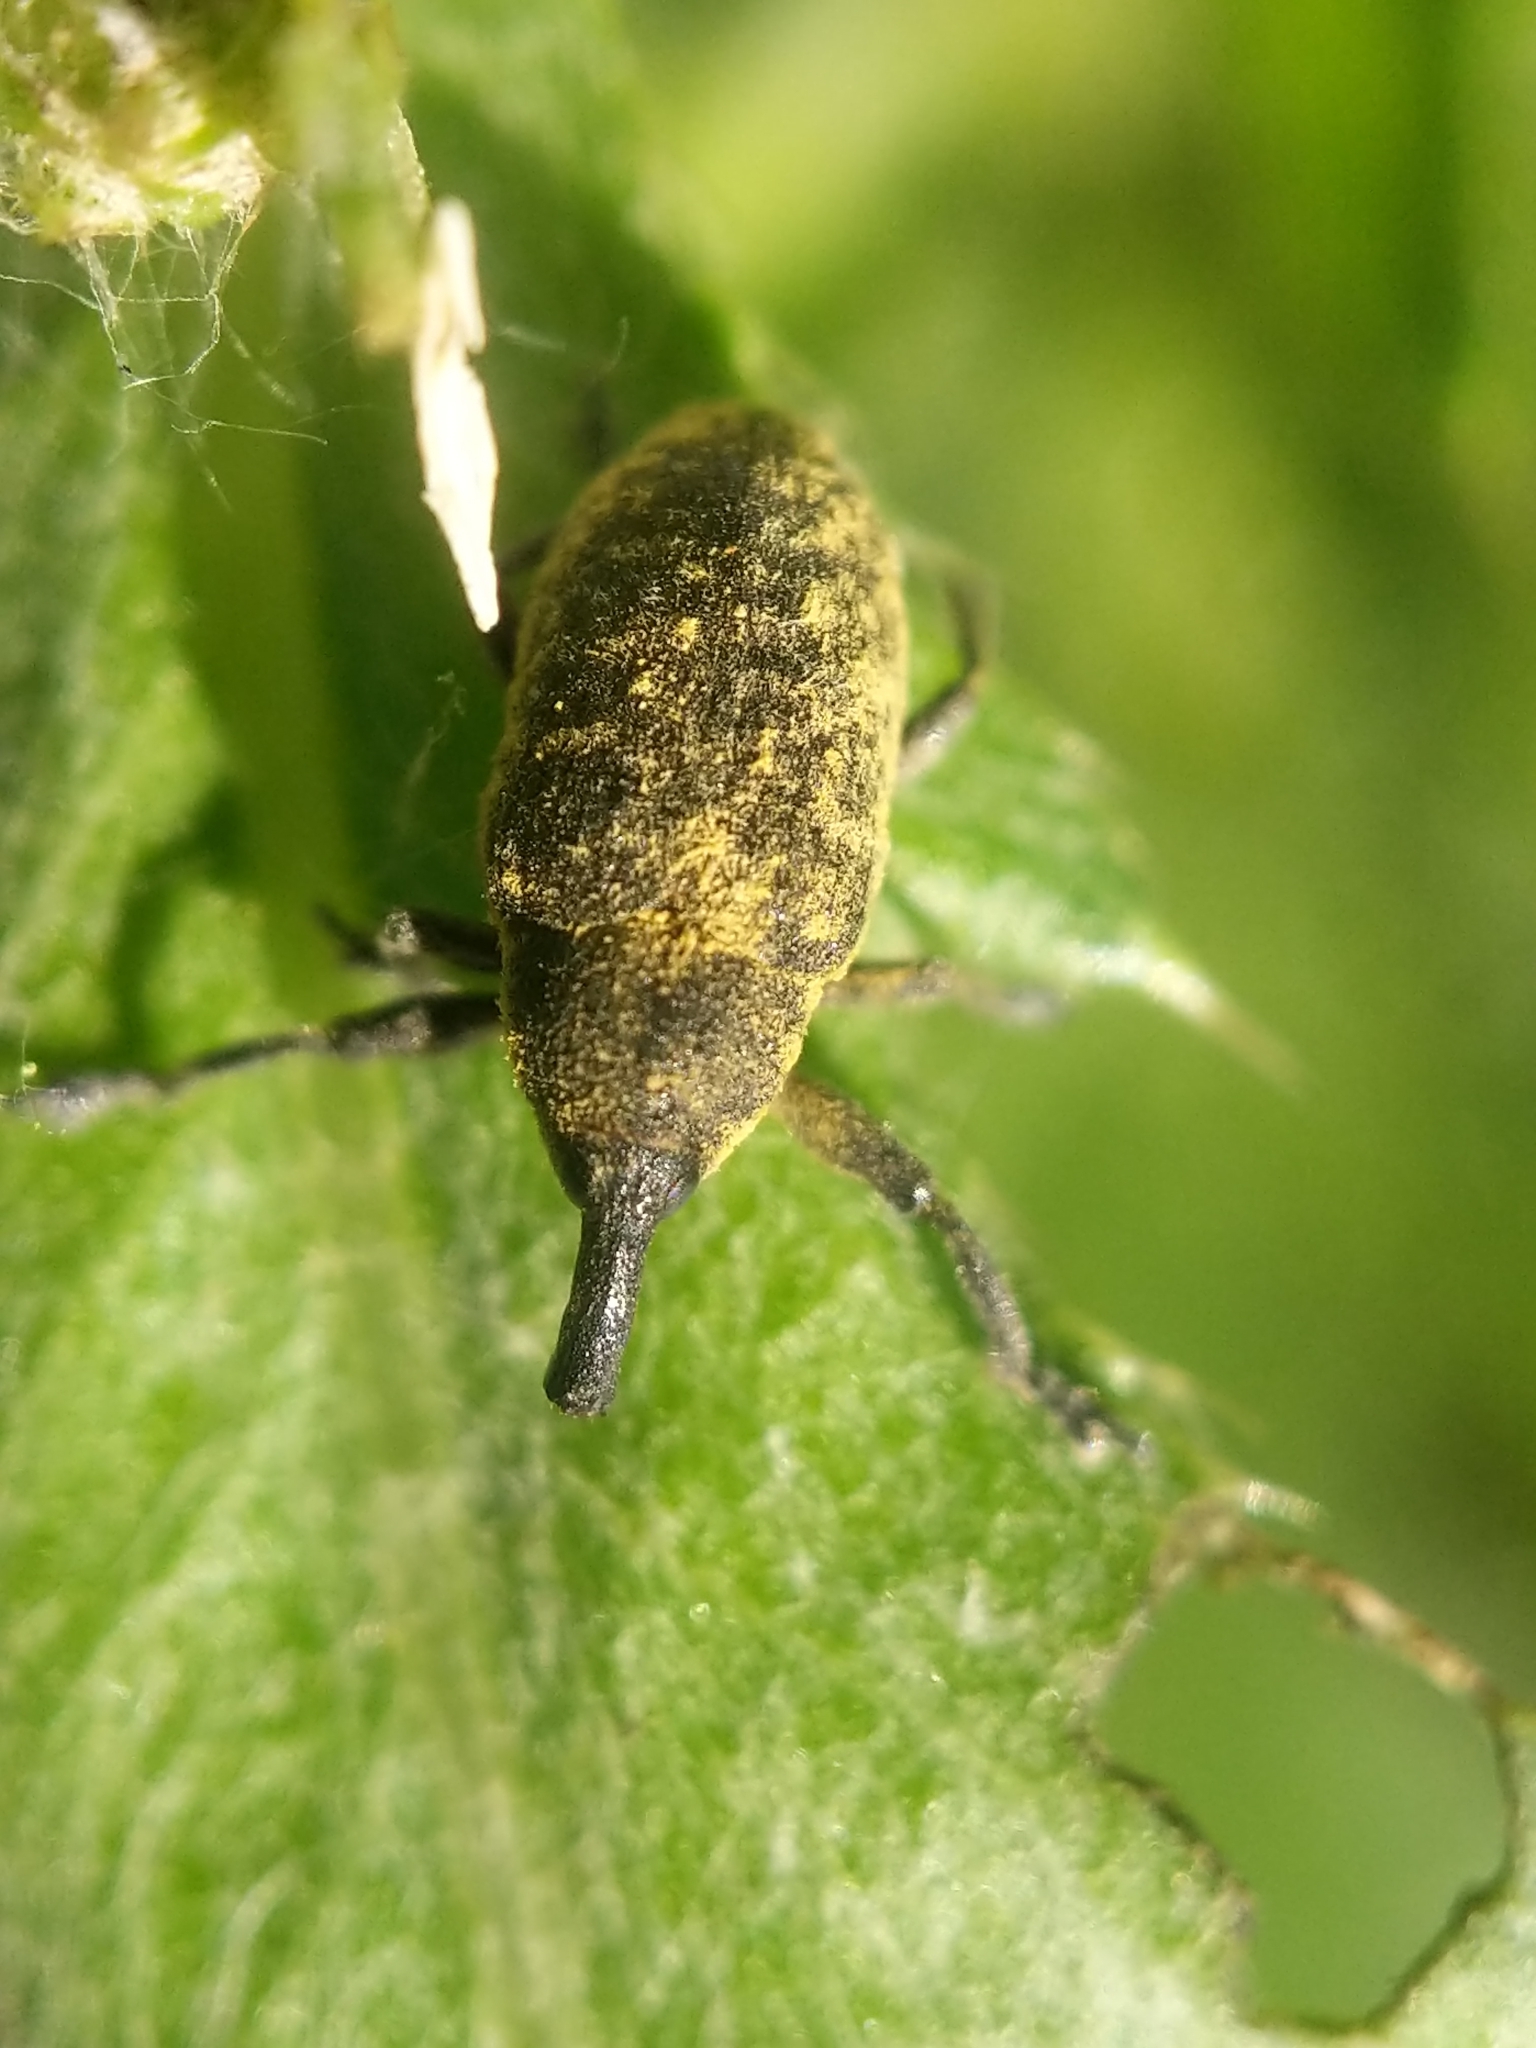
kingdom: Animalia
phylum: Arthropoda
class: Insecta
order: Coleoptera
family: Curculionidae
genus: Larinus
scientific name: Larinus carlinae
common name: Weevil
